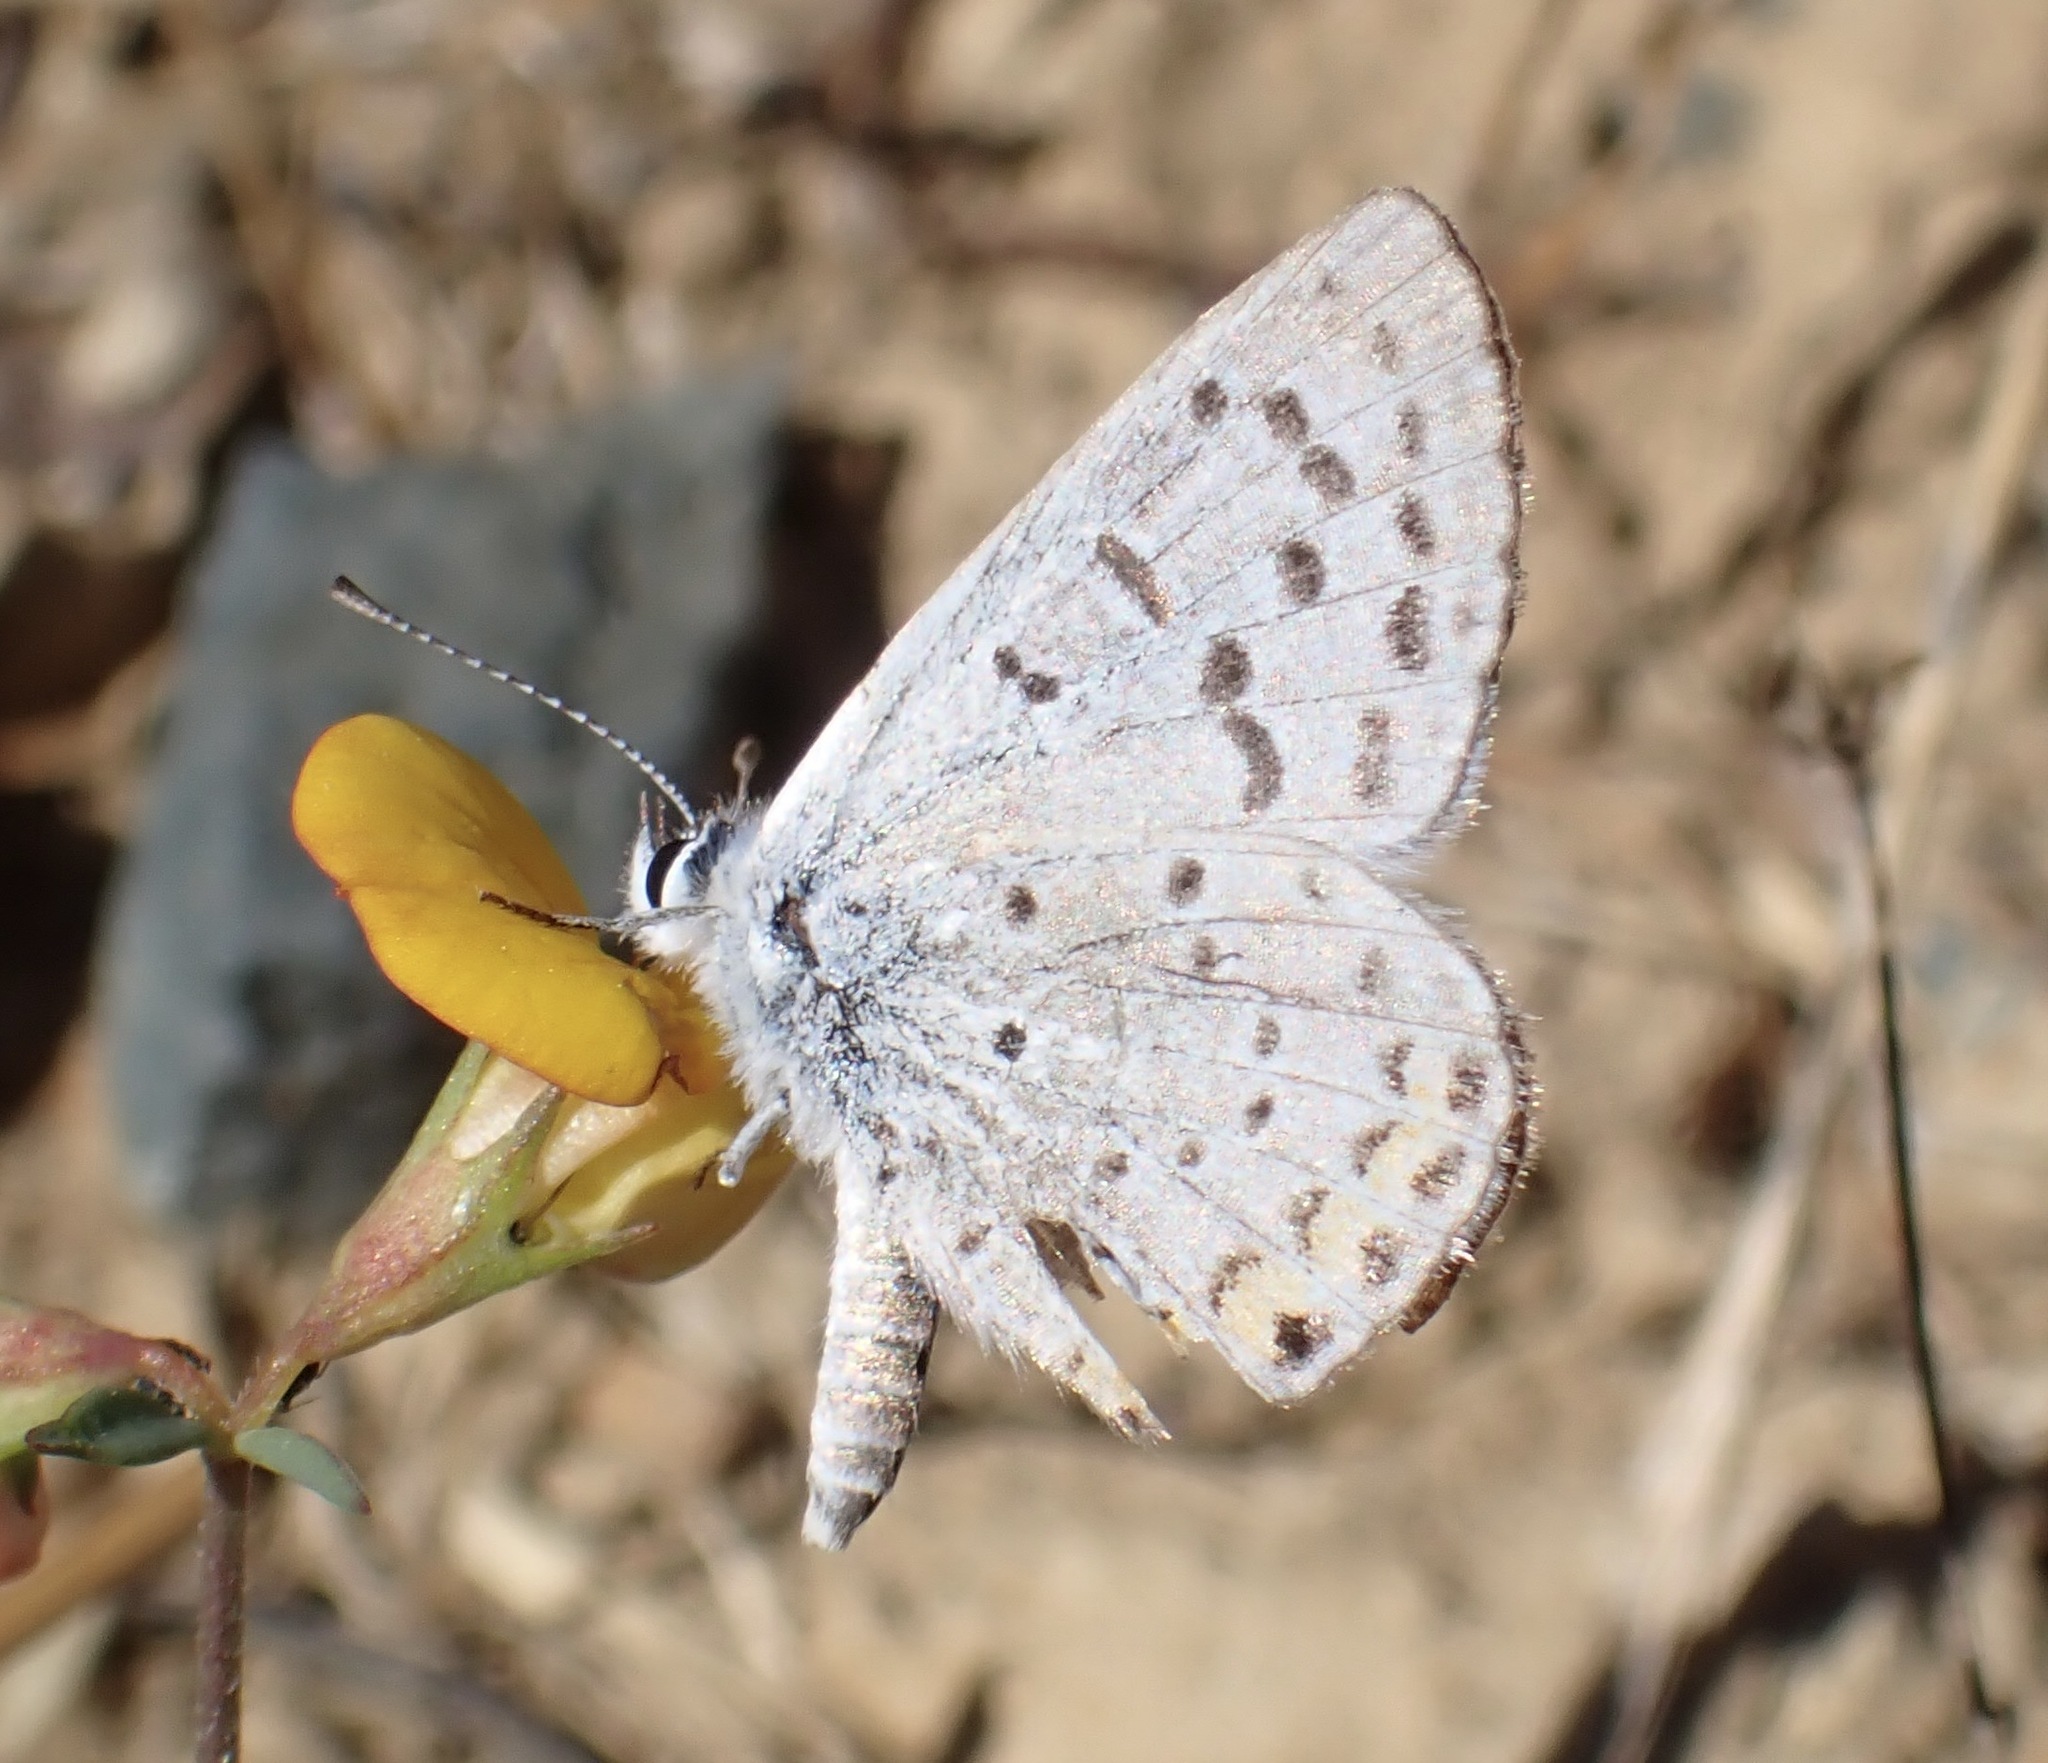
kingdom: Animalia
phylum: Arthropoda
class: Insecta
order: Lepidoptera
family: Lycaenidae
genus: Icaricia
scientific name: Icaricia acmon
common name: Acmon blue
